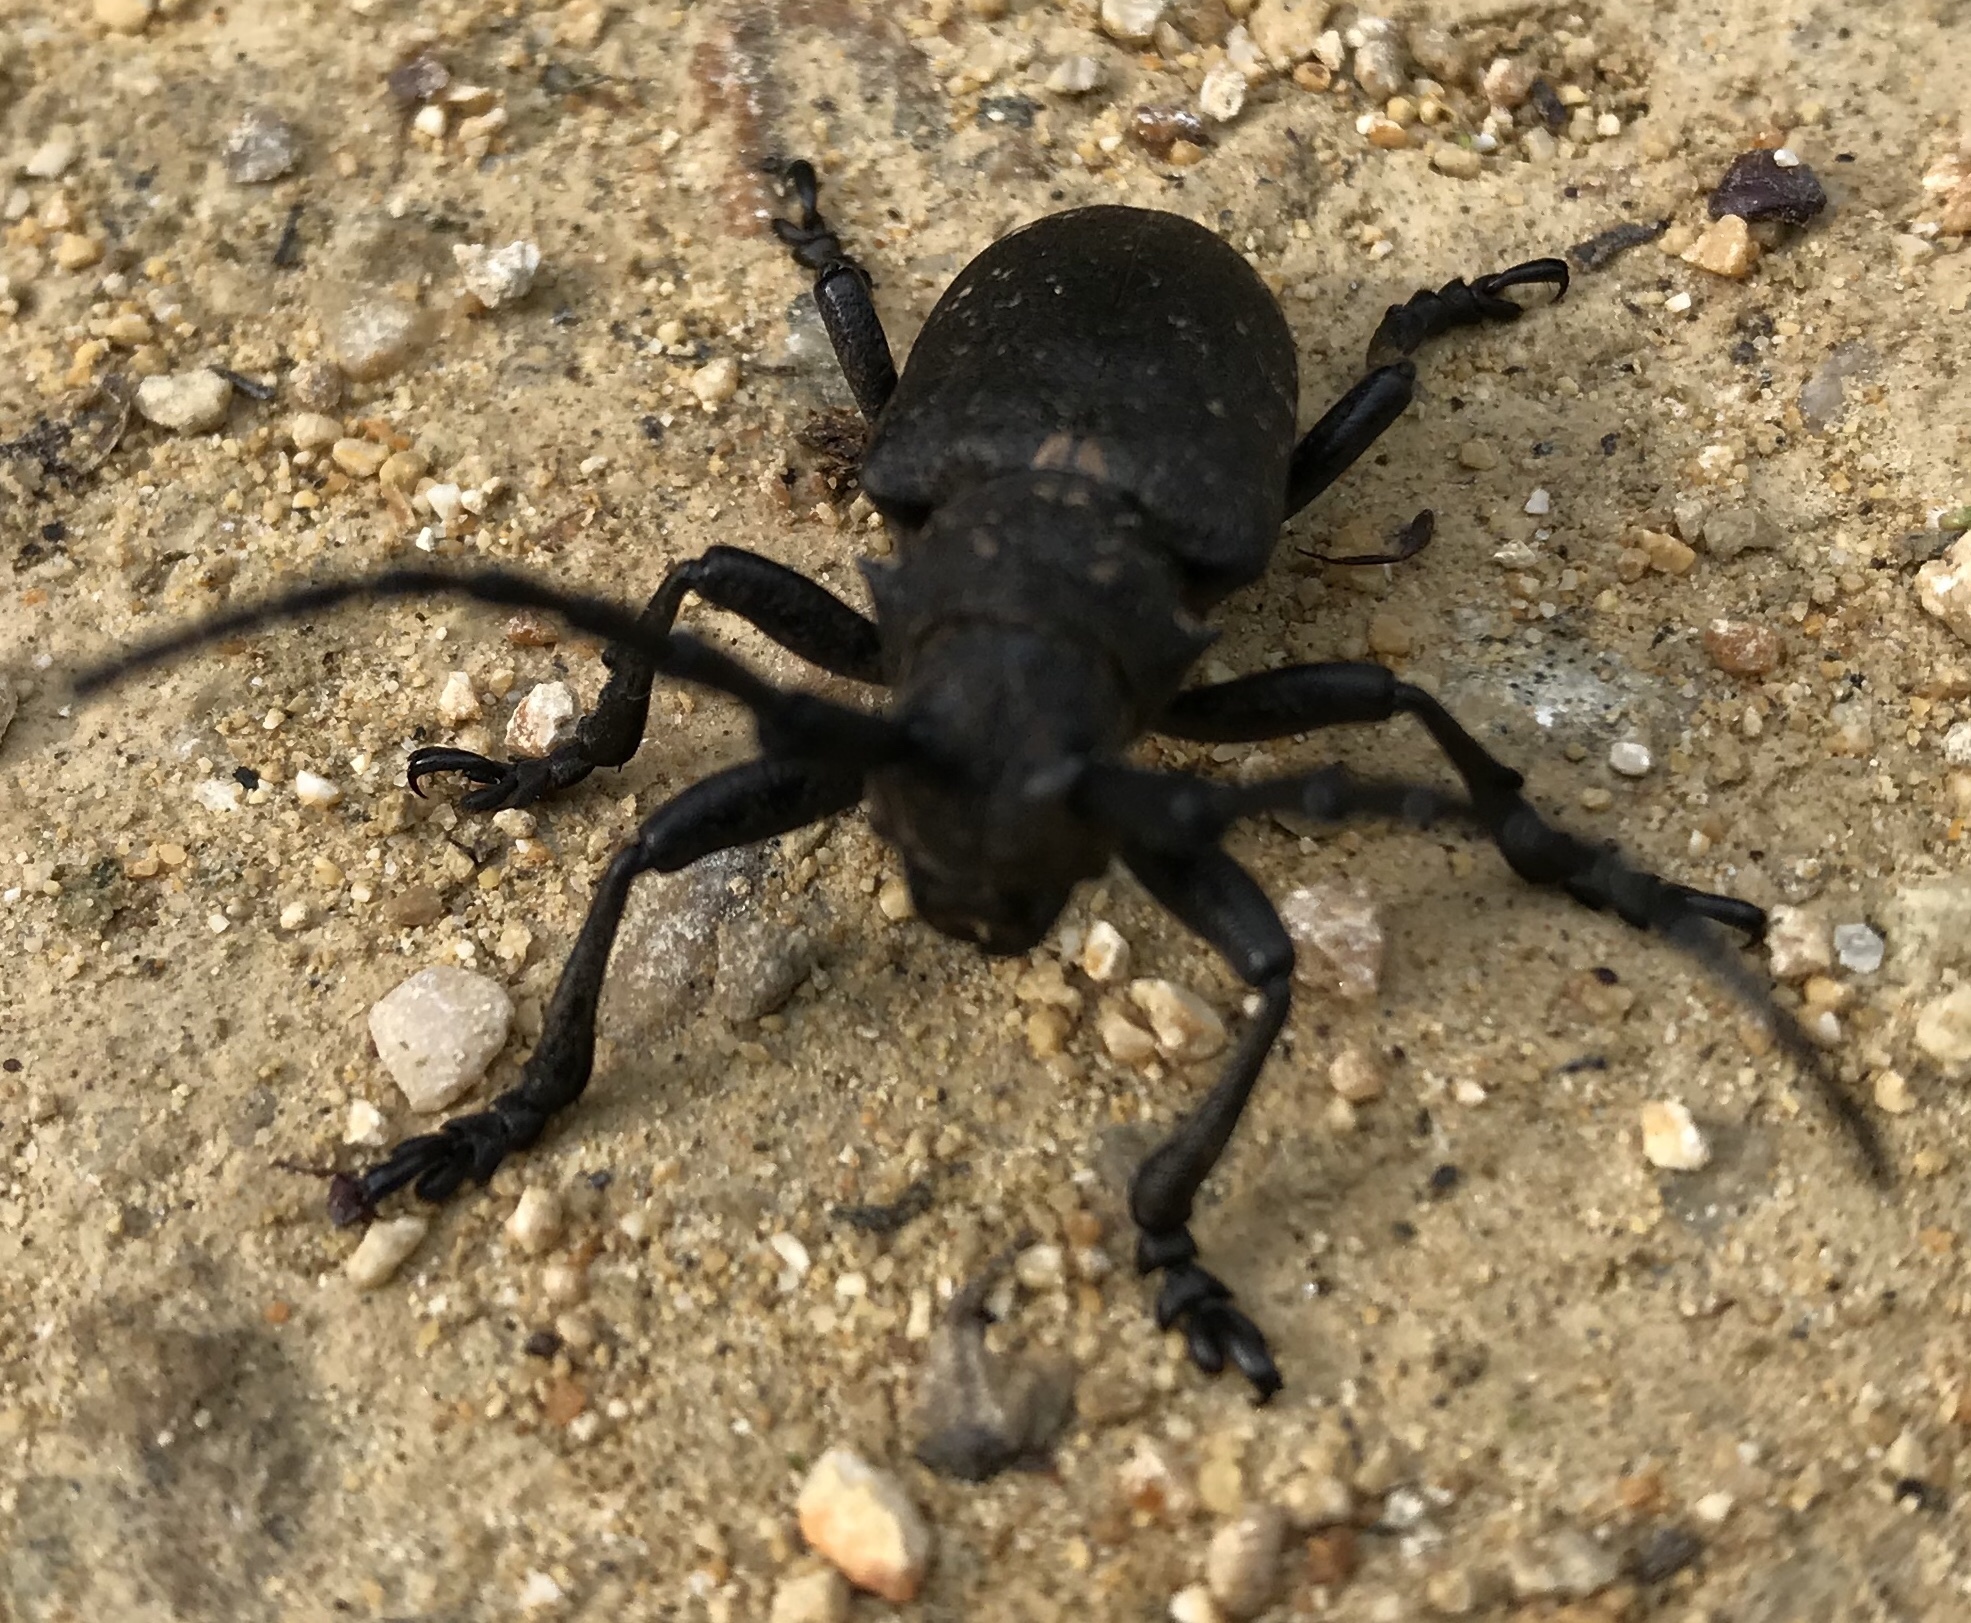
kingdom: Animalia
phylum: Arthropoda
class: Insecta
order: Coleoptera
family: Cerambycidae
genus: Lamia
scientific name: Lamia textor
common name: Weaver beetle
